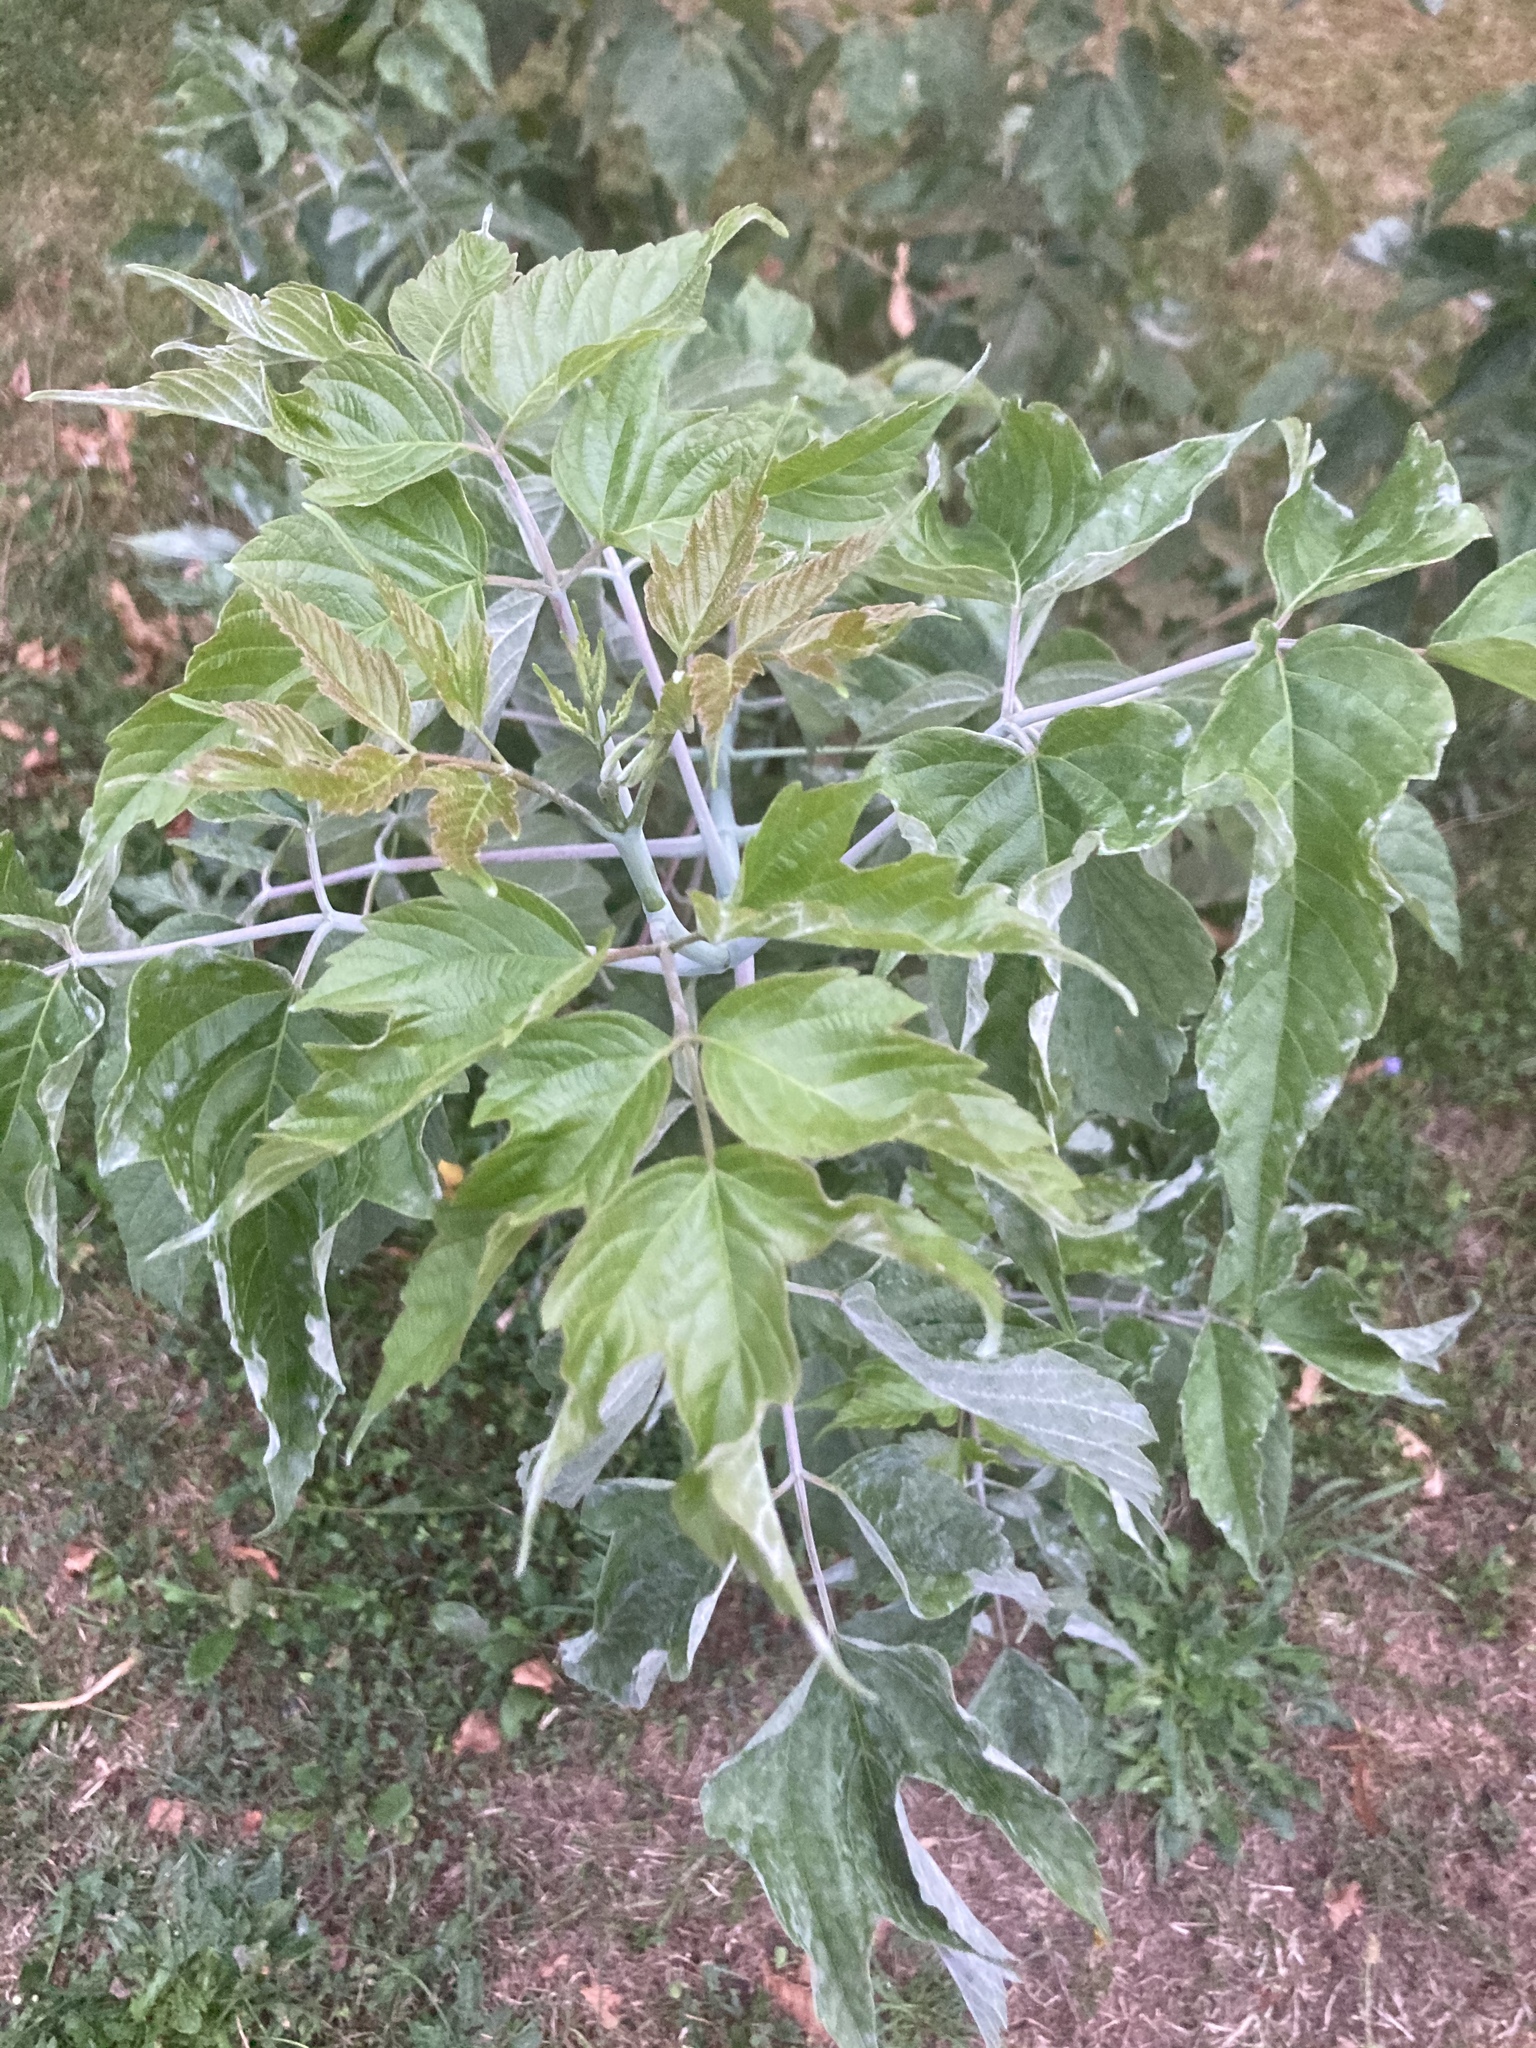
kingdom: Plantae
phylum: Tracheophyta
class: Magnoliopsida
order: Sapindales
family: Sapindaceae
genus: Acer
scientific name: Acer negundo
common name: Ashleaf maple
